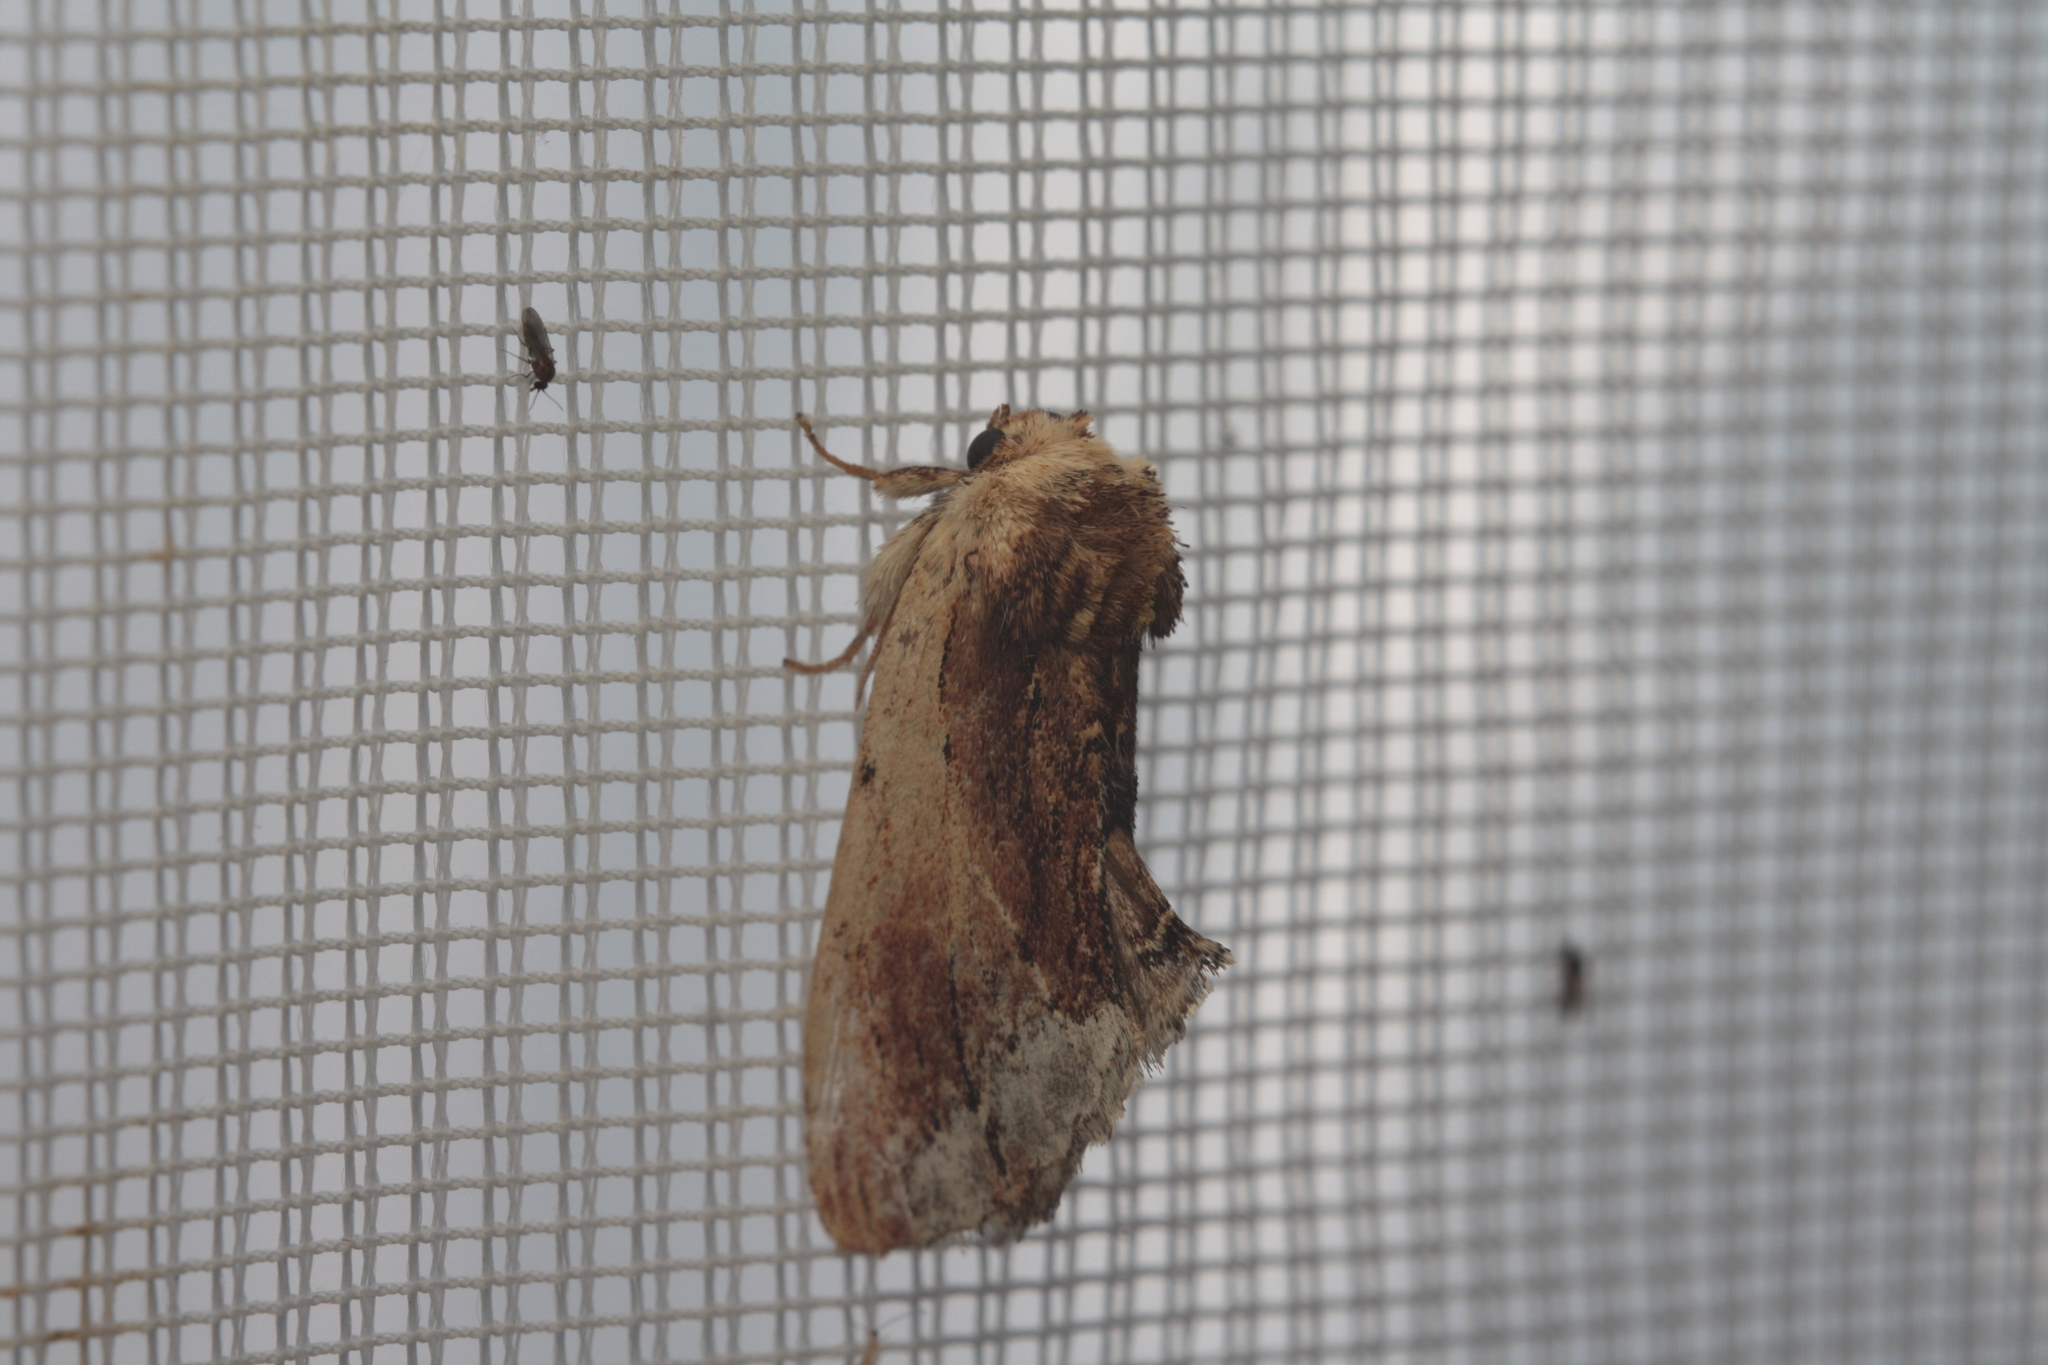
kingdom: Animalia
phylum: Arthropoda
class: Insecta
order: Lepidoptera
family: Notodontidae
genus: Ptilodon
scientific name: Ptilodon cucullina
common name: Maple prominent
